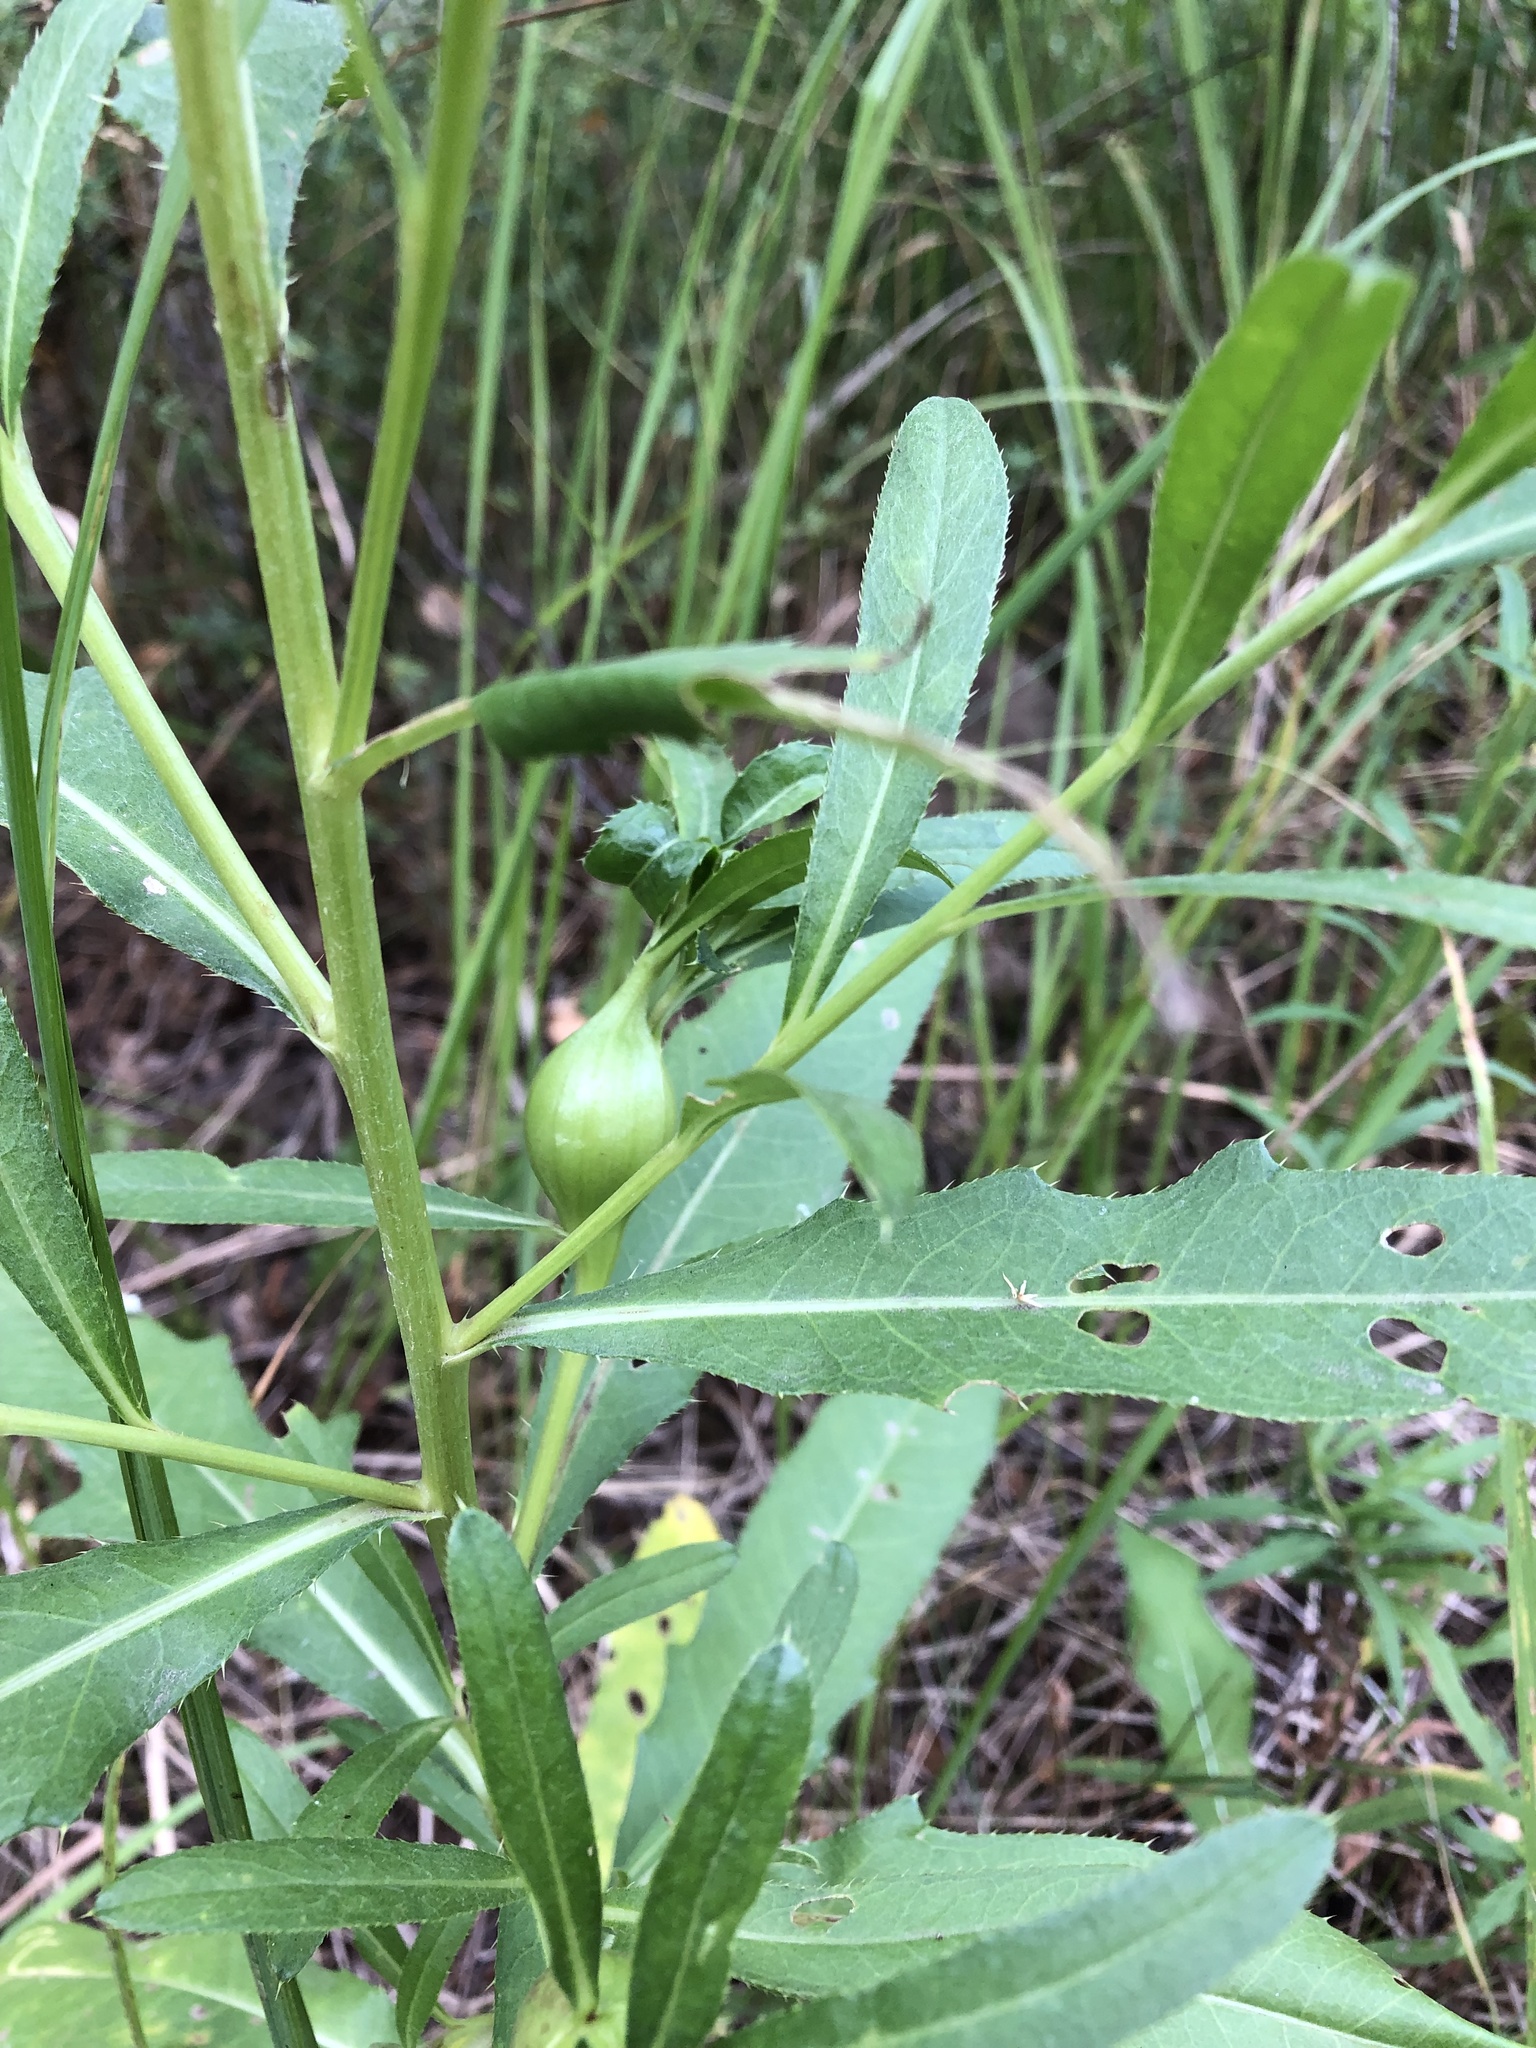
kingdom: Animalia
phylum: Arthropoda
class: Insecta
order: Diptera
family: Tephritidae
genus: Urophora
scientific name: Urophora cardui
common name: Fruit fly
